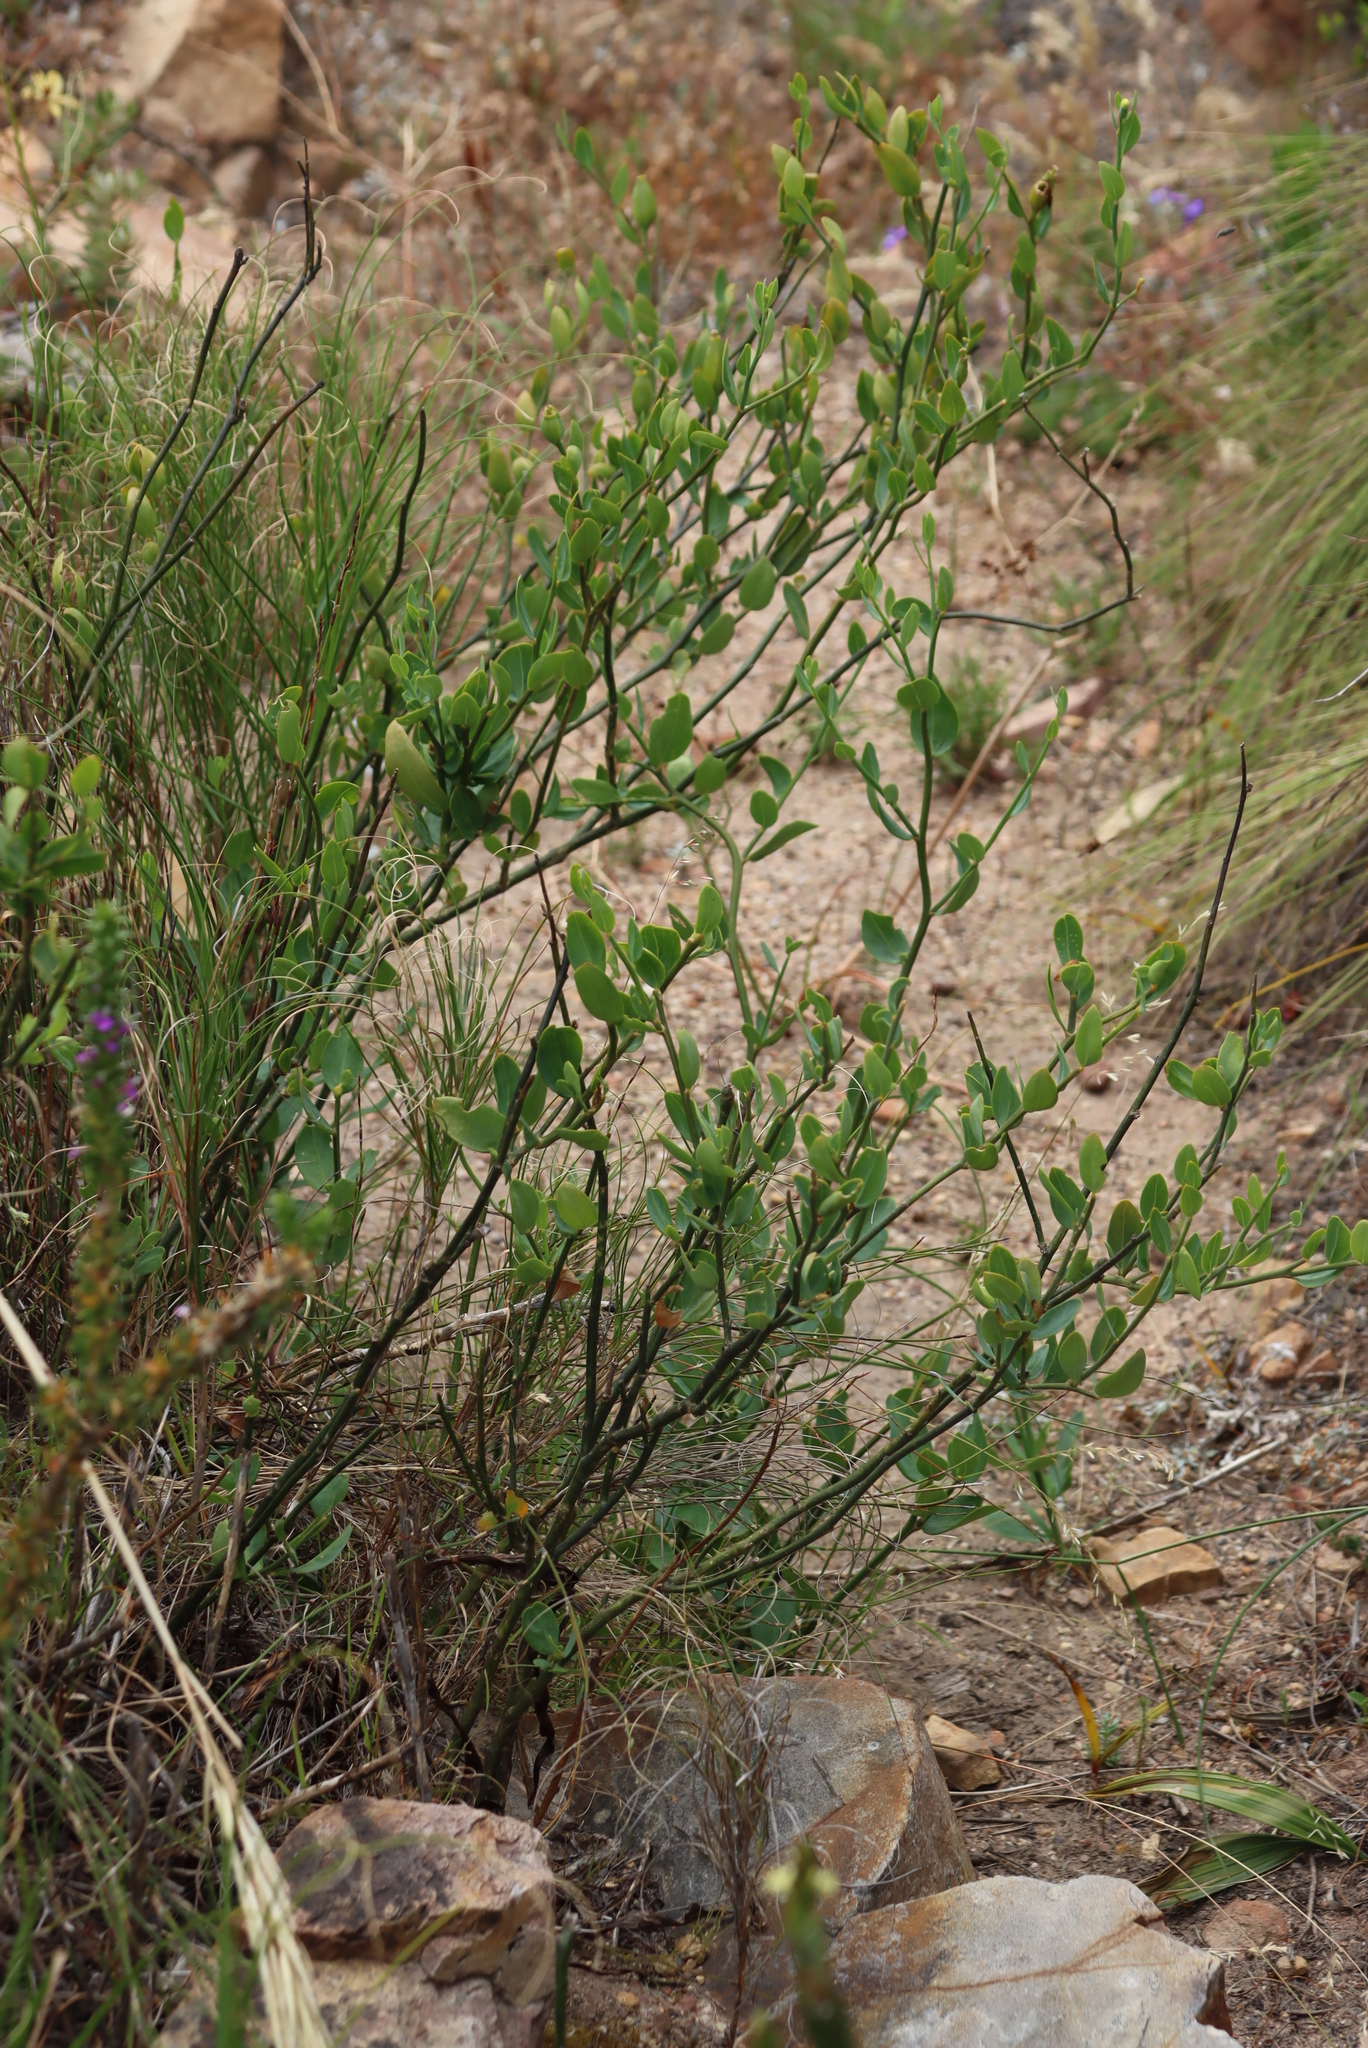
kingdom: Plantae
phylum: Tracheophyta
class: Magnoliopsida
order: Solanales
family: Montiniaceae
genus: Montinia
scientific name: Montinia caryophyllacea
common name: Wild clove-bush
